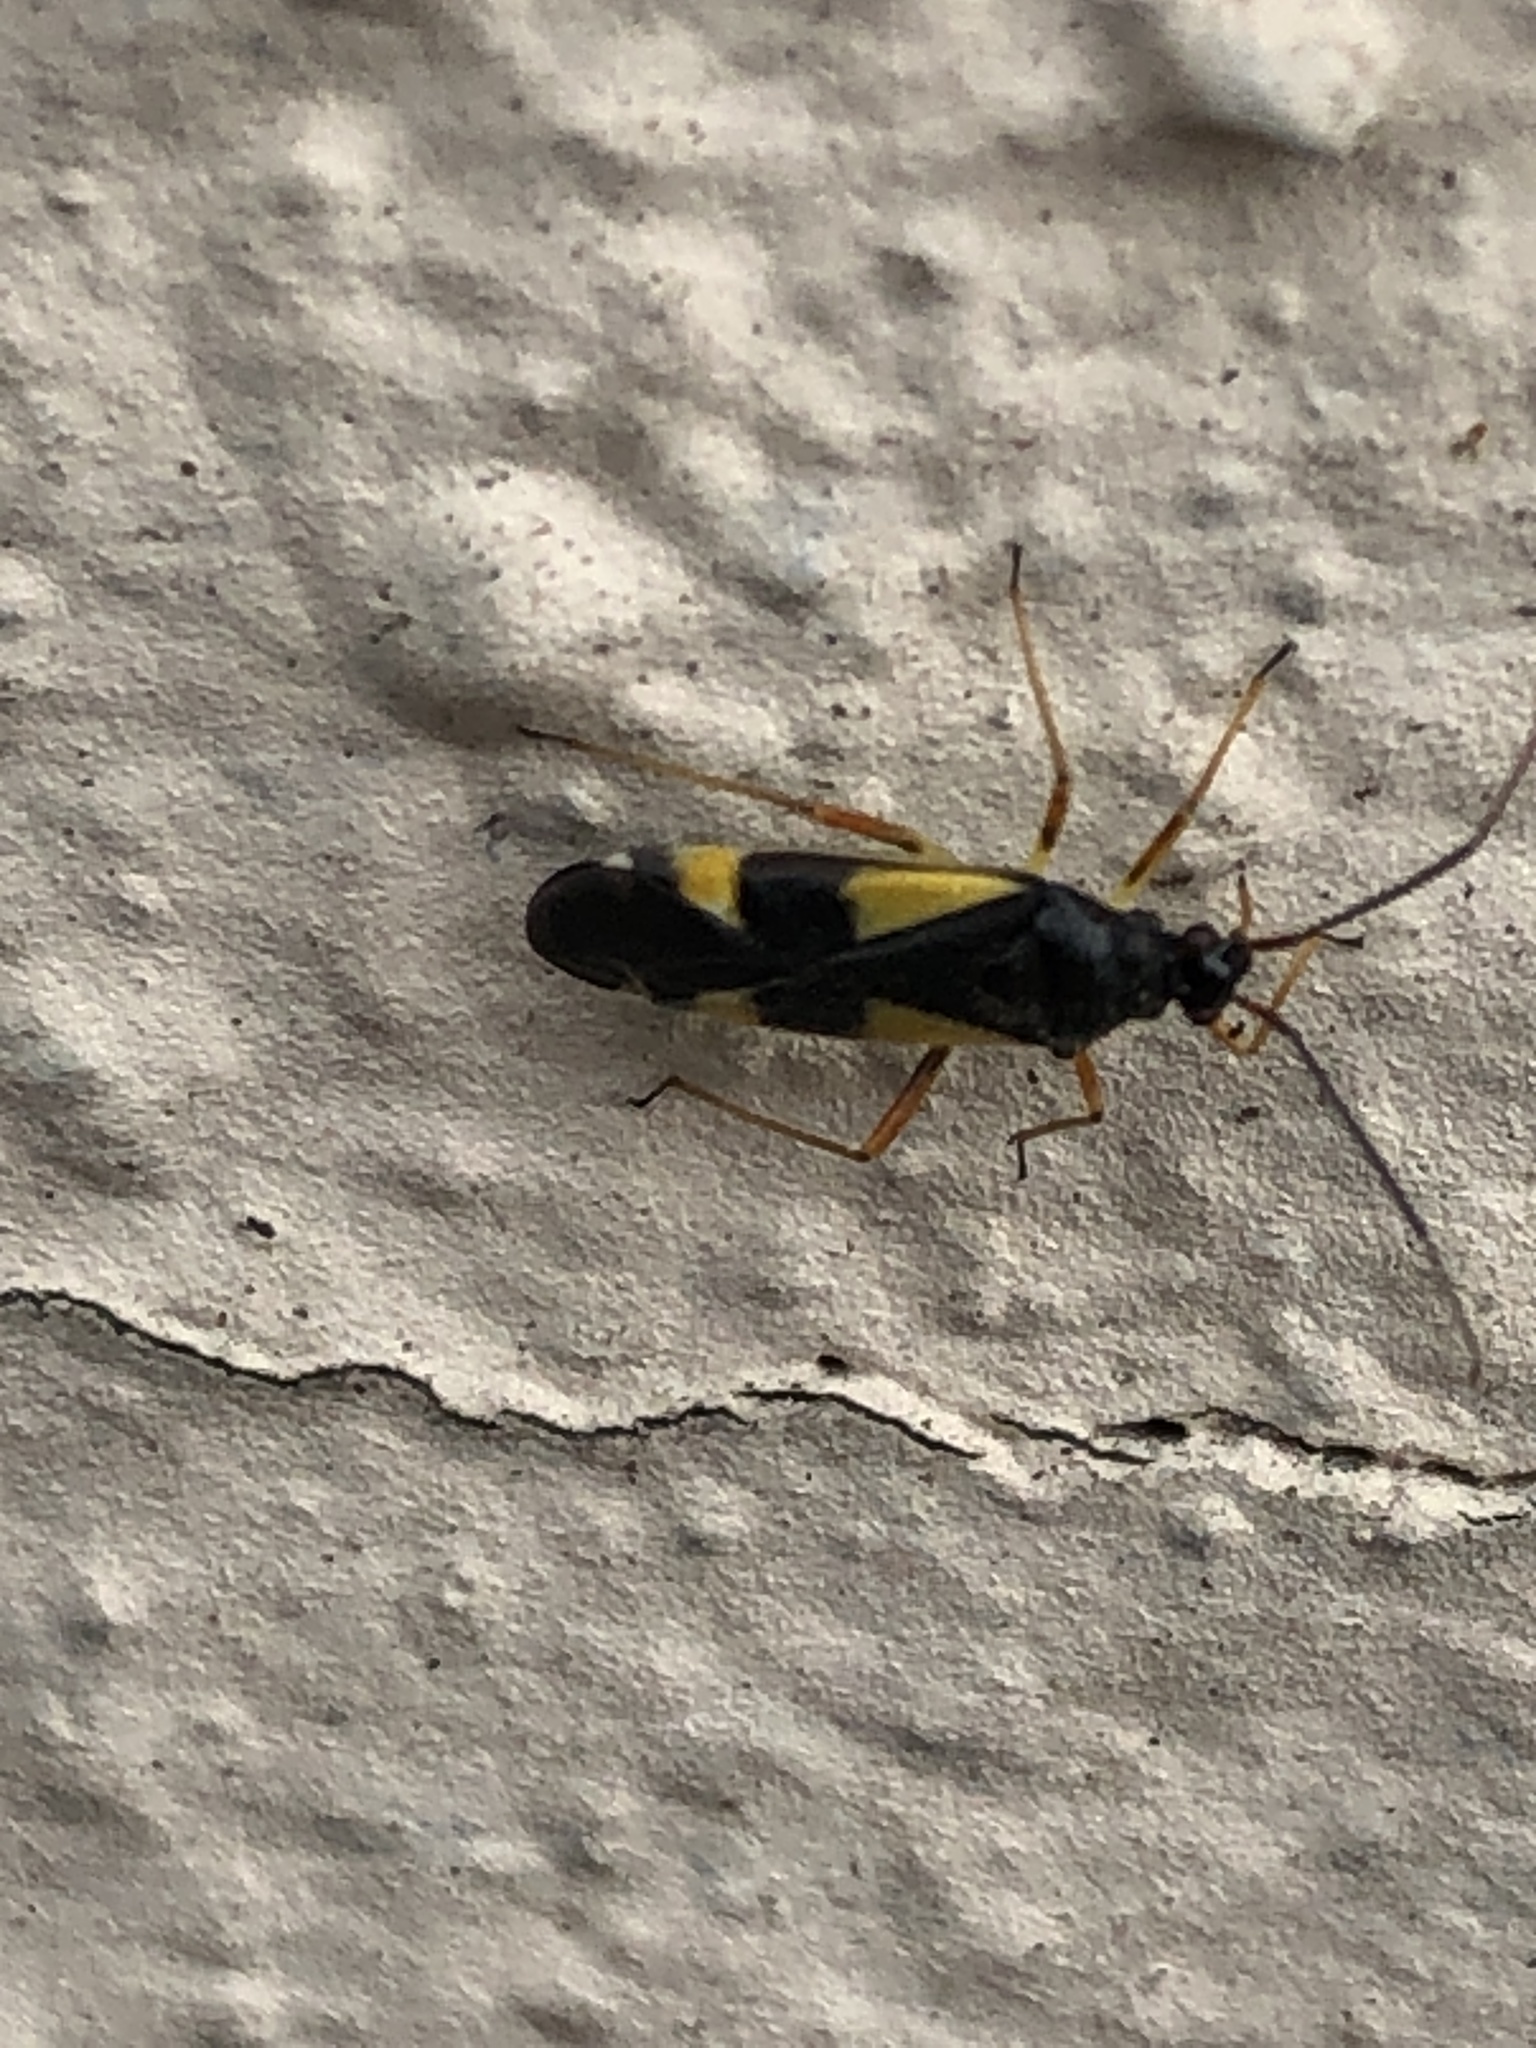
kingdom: Animalia
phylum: Arthropoda
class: Insecta
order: Hemiptera
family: Miridae
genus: Dryophilocoris
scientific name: Dryophilocoris flavoquadrimaculatus
